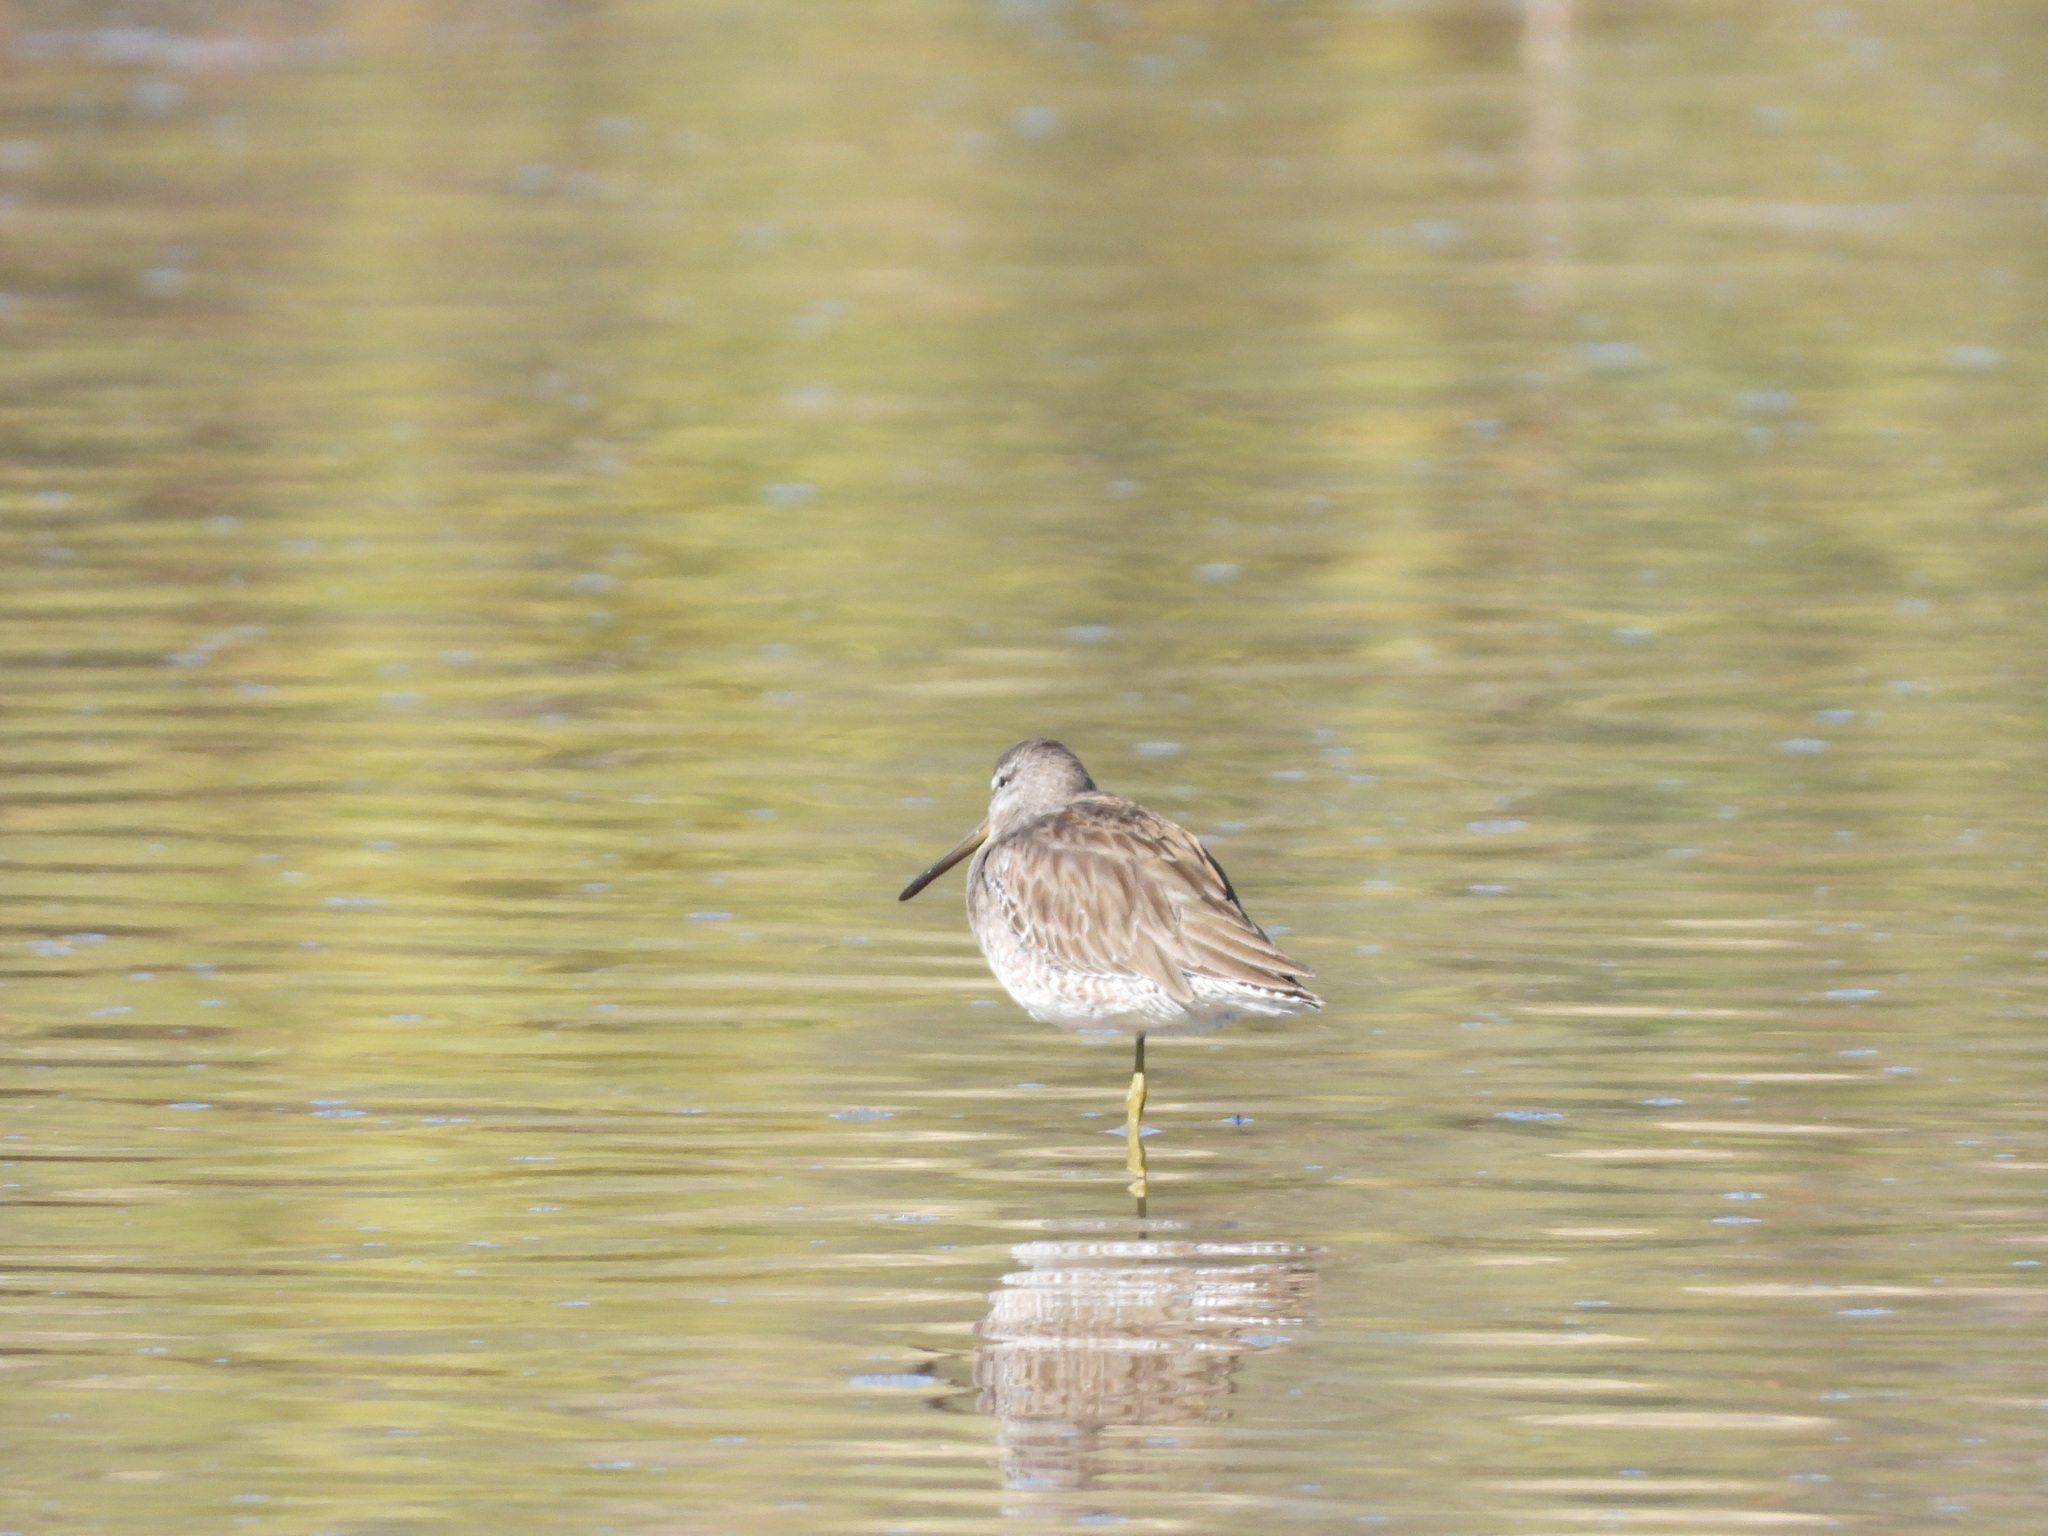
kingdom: Animalia
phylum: Chordata
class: Aves
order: Charadriiformes
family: Scolopacidae
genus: Limnodromus
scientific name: Limnodromus scolopaceus
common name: Long-billed dowitcher
